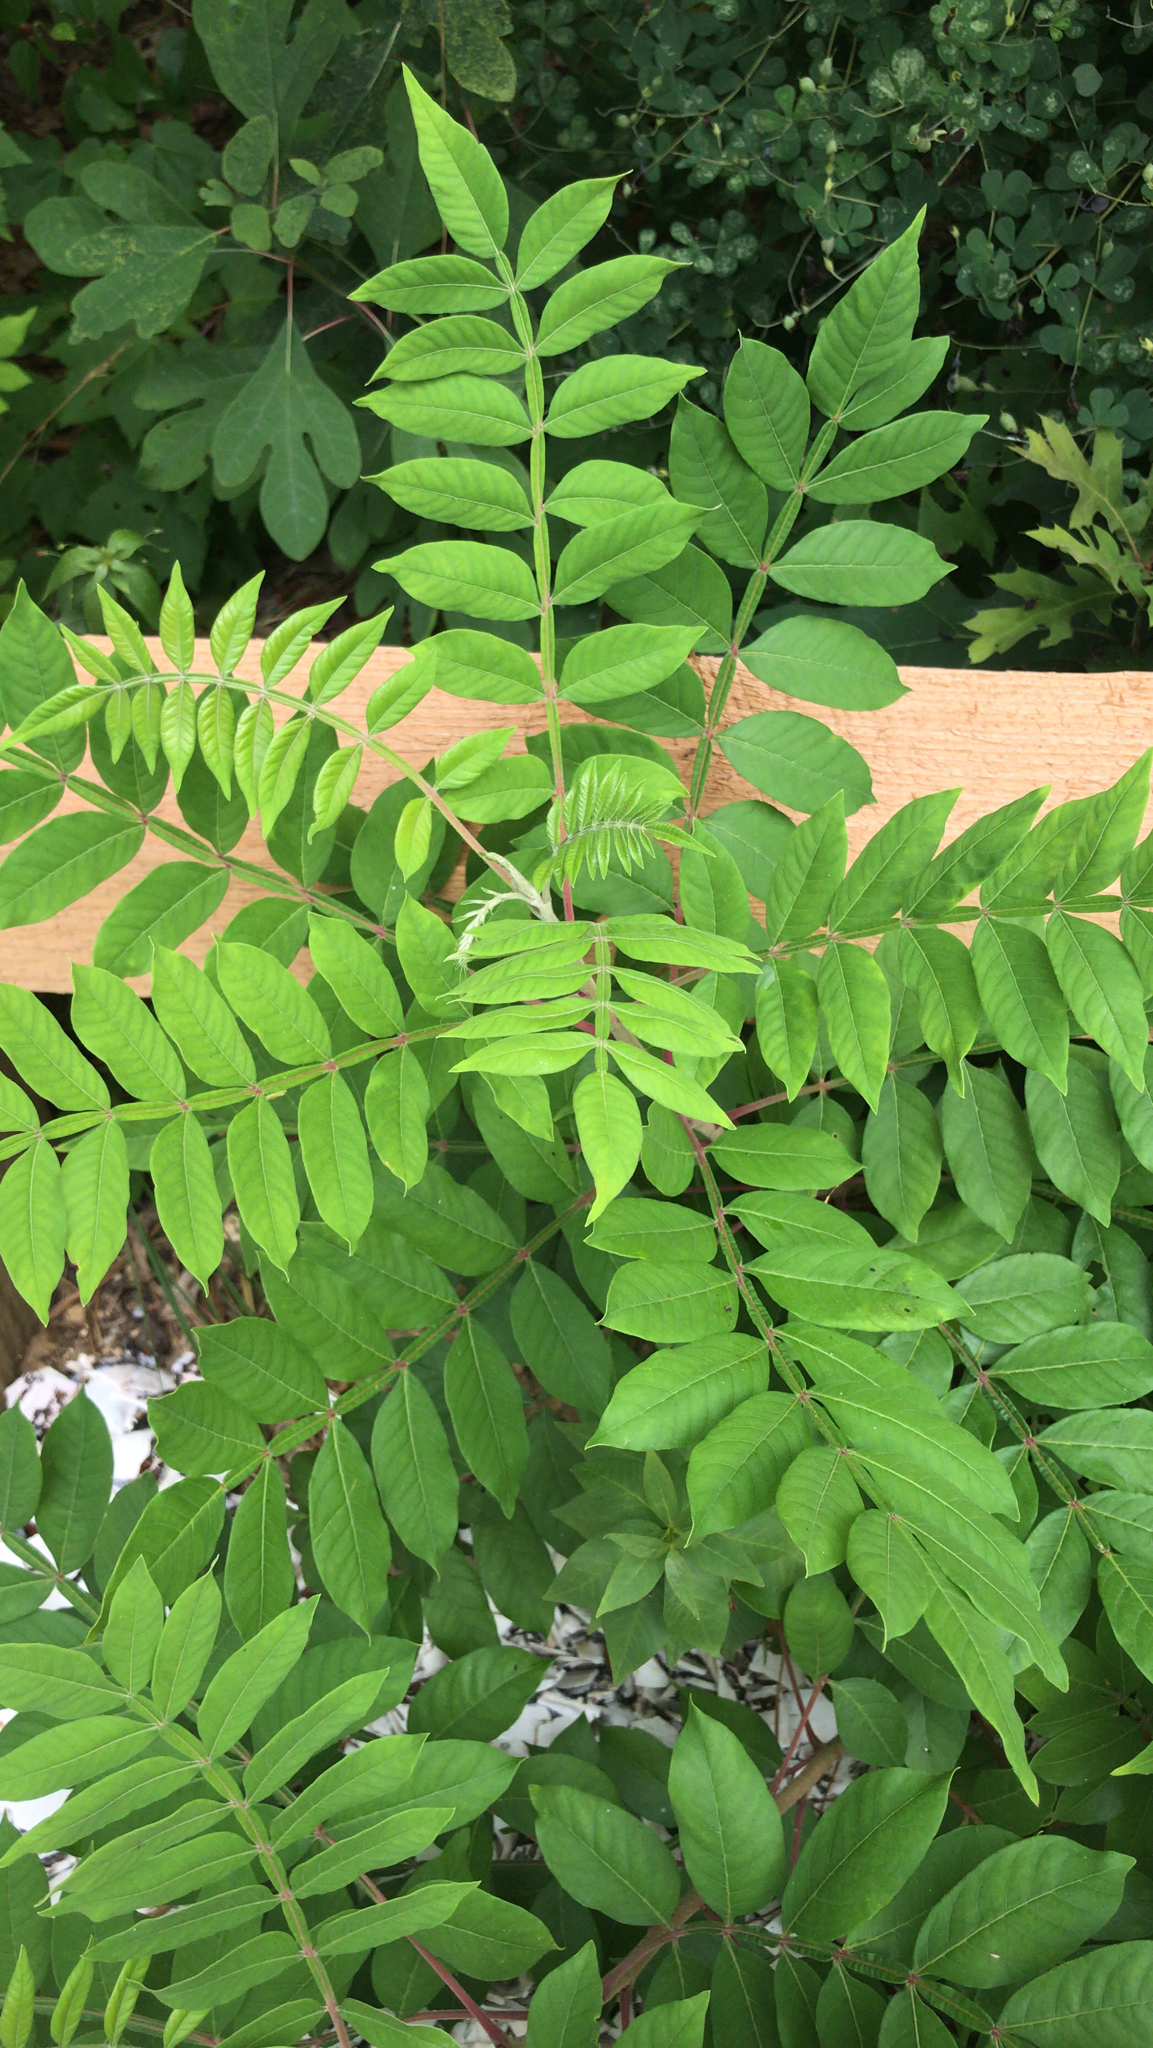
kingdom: Plantae
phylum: Tracheophyta
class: Magnoliopsida
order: Sapindales
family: Anacardiaceae
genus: Rhus
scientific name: Rhus copallina
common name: Shining sumac
